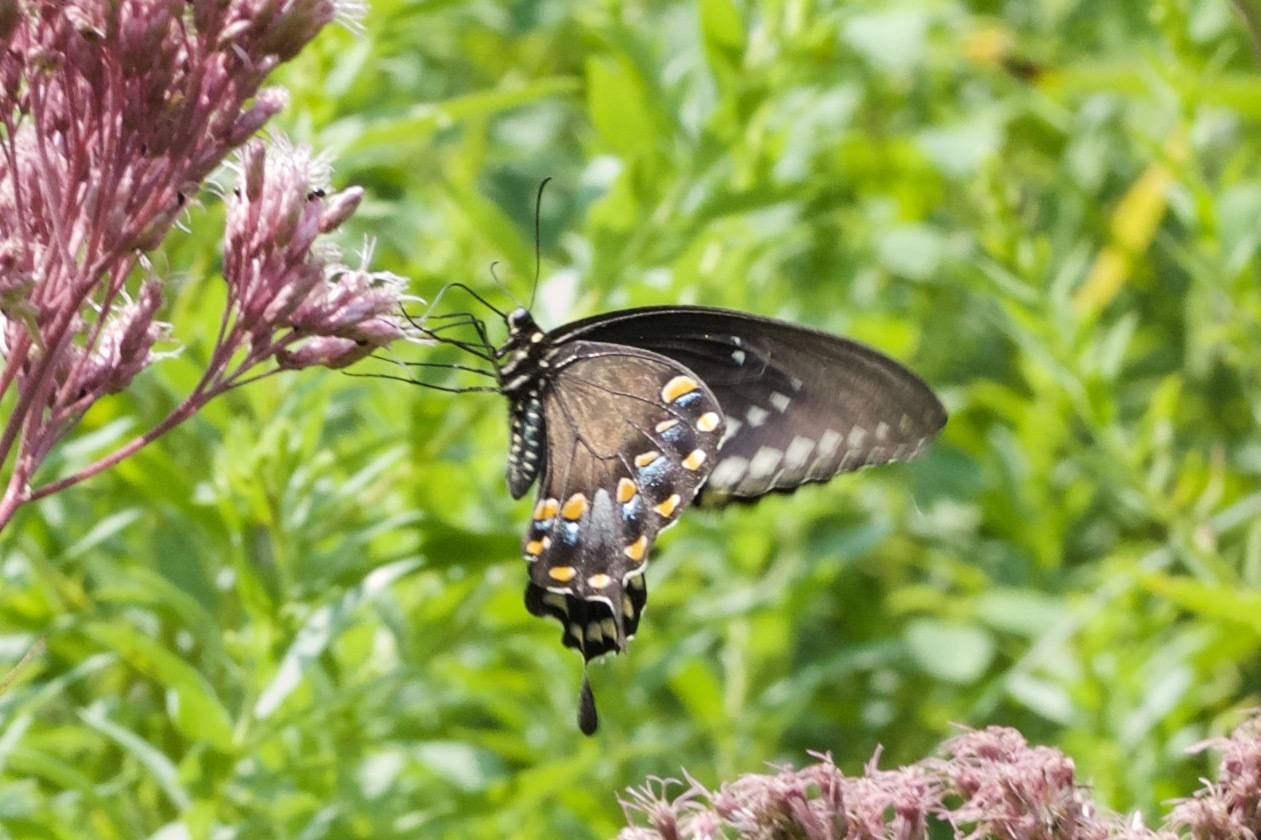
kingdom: Animalia
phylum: Arthropoda
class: Insecta
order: Lepidoptera
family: Papilionidae
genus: Papilio
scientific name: Papilio troilus
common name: Spicebush swallowtail
